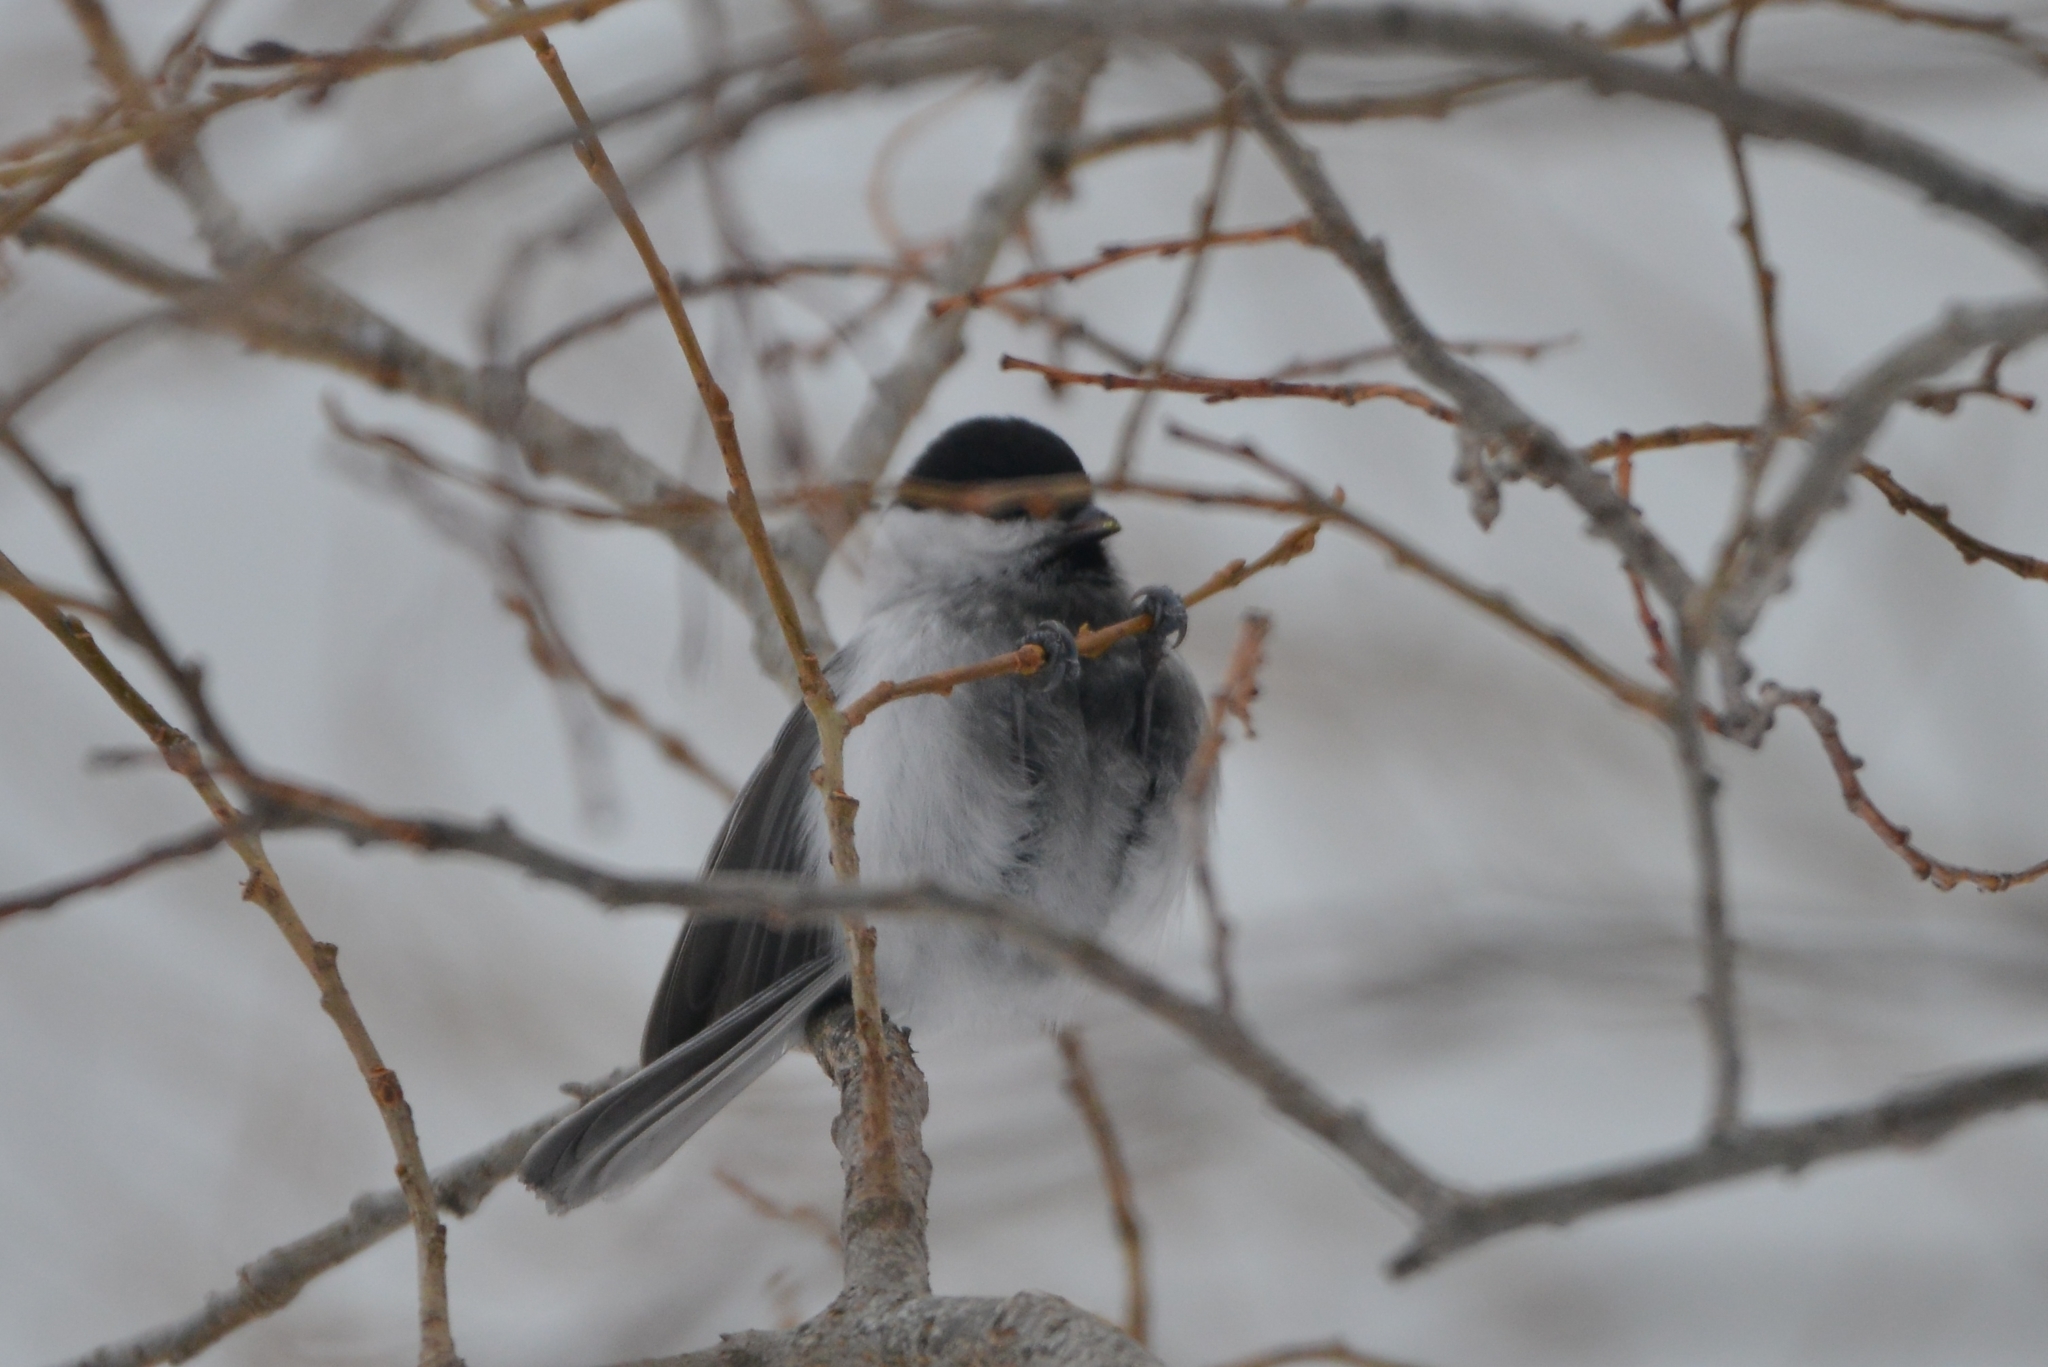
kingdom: Animalia
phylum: Chordata
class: Aves
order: Passeriformes
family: Paridae
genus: Poecile
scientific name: Poecile montanus
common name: Willow tit
